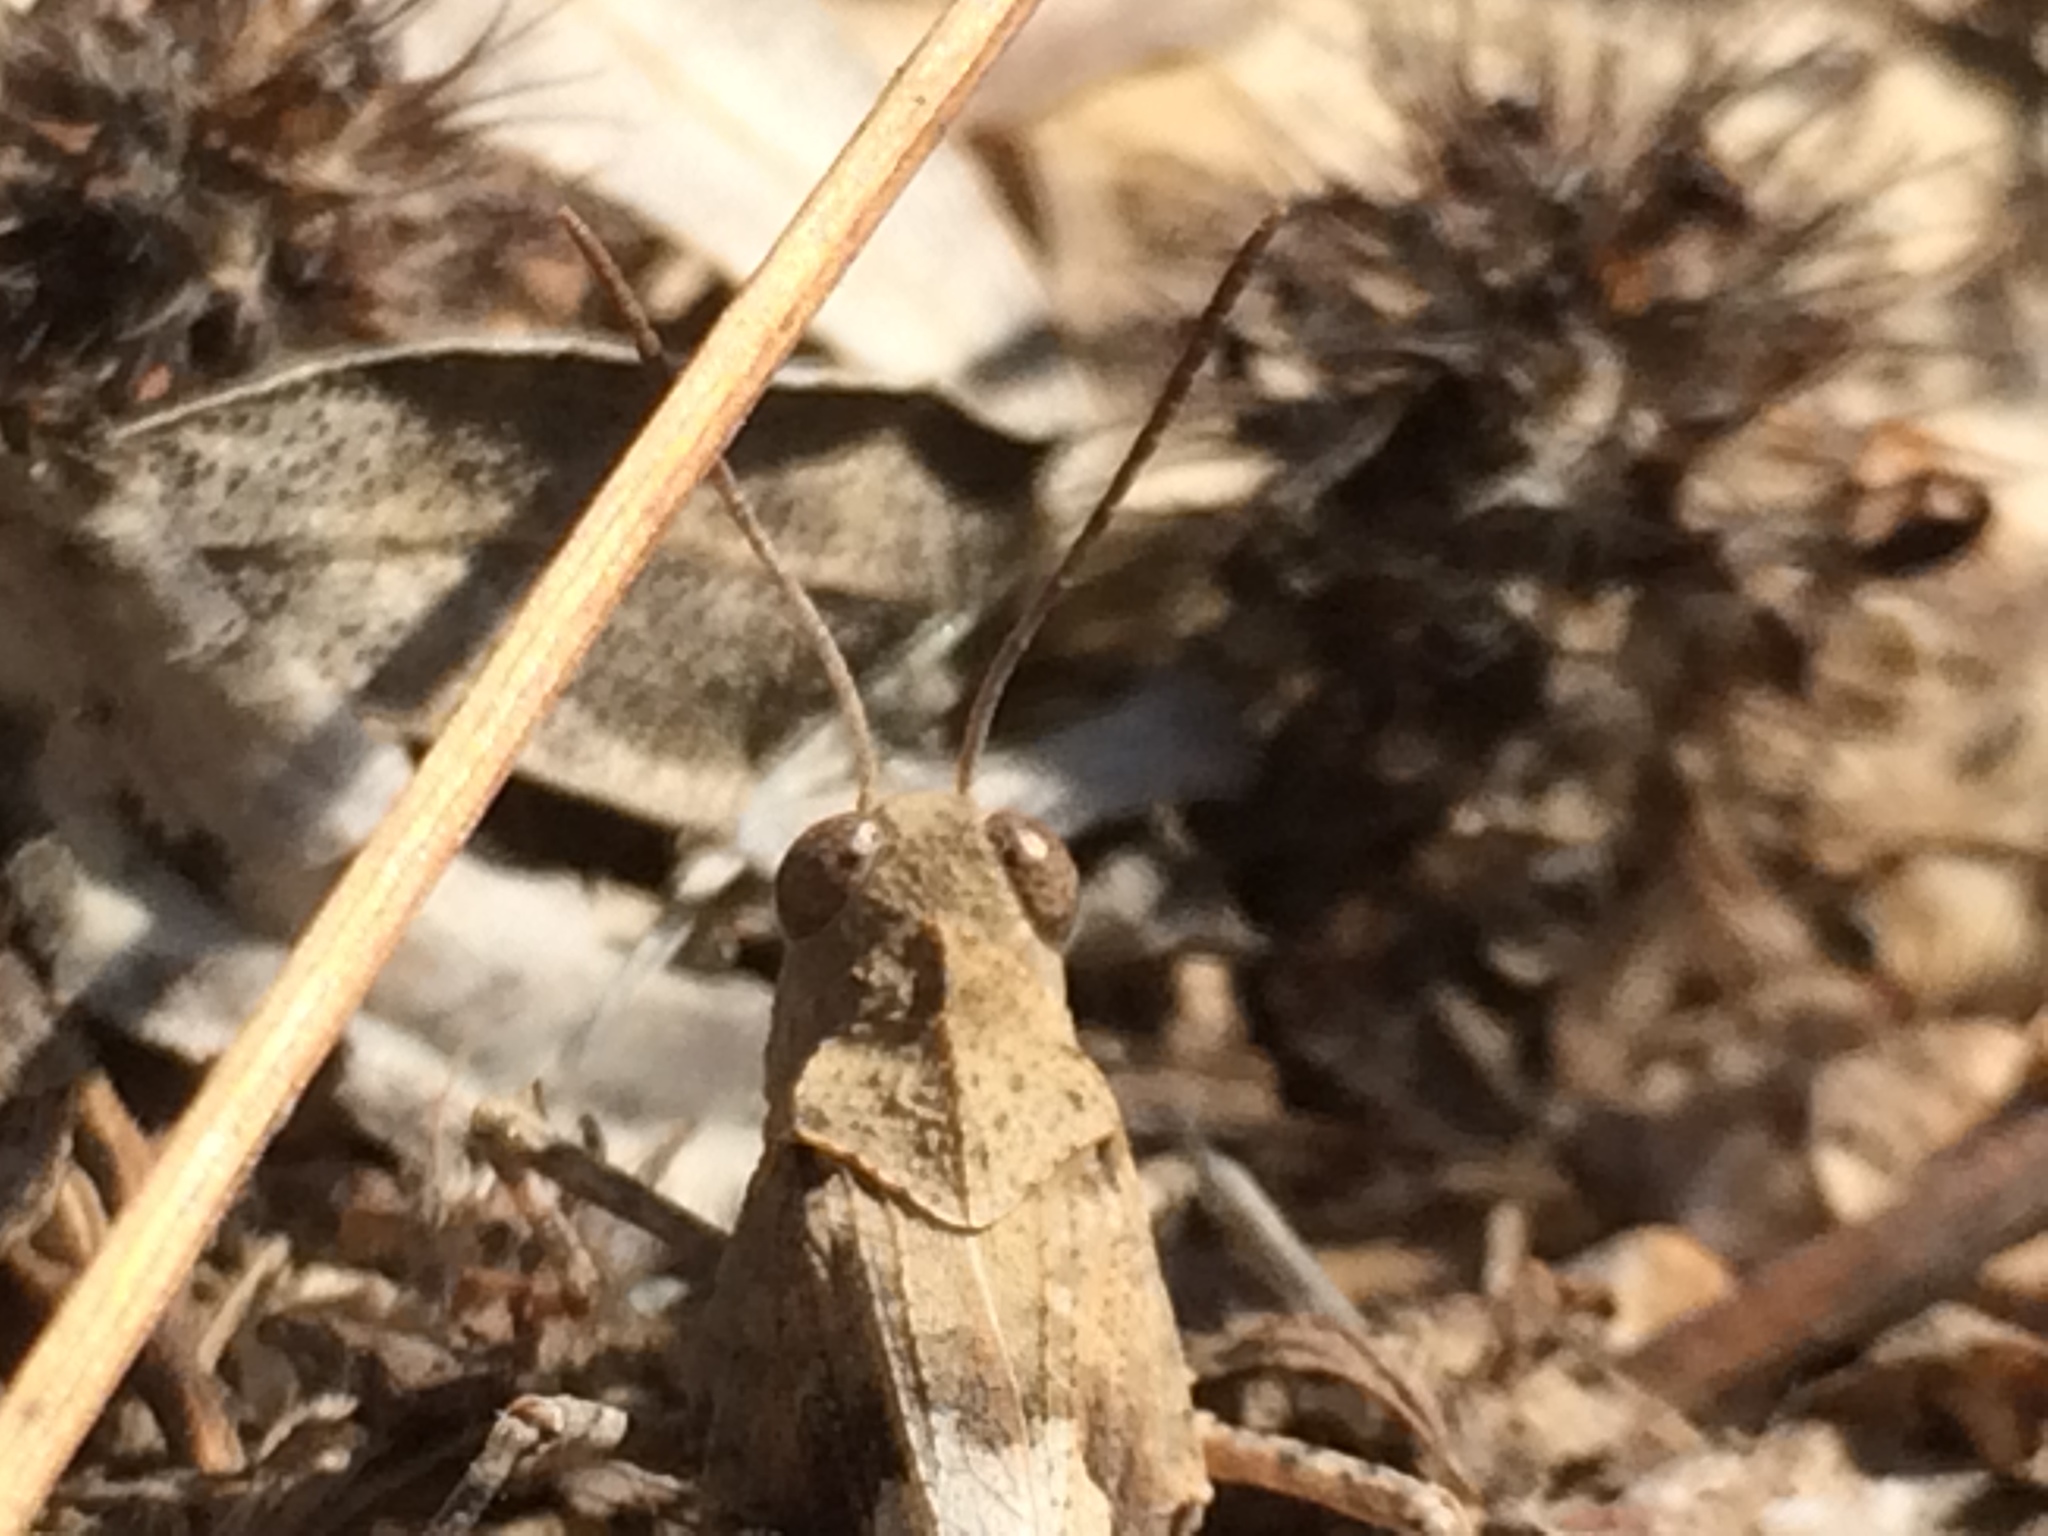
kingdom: Animalia
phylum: Arthropoda
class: Insecta
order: Orthoptera
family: Acrididae
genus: Oedipoda
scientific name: Oedipoda caerulescens
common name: Blue-winged grasshopper
